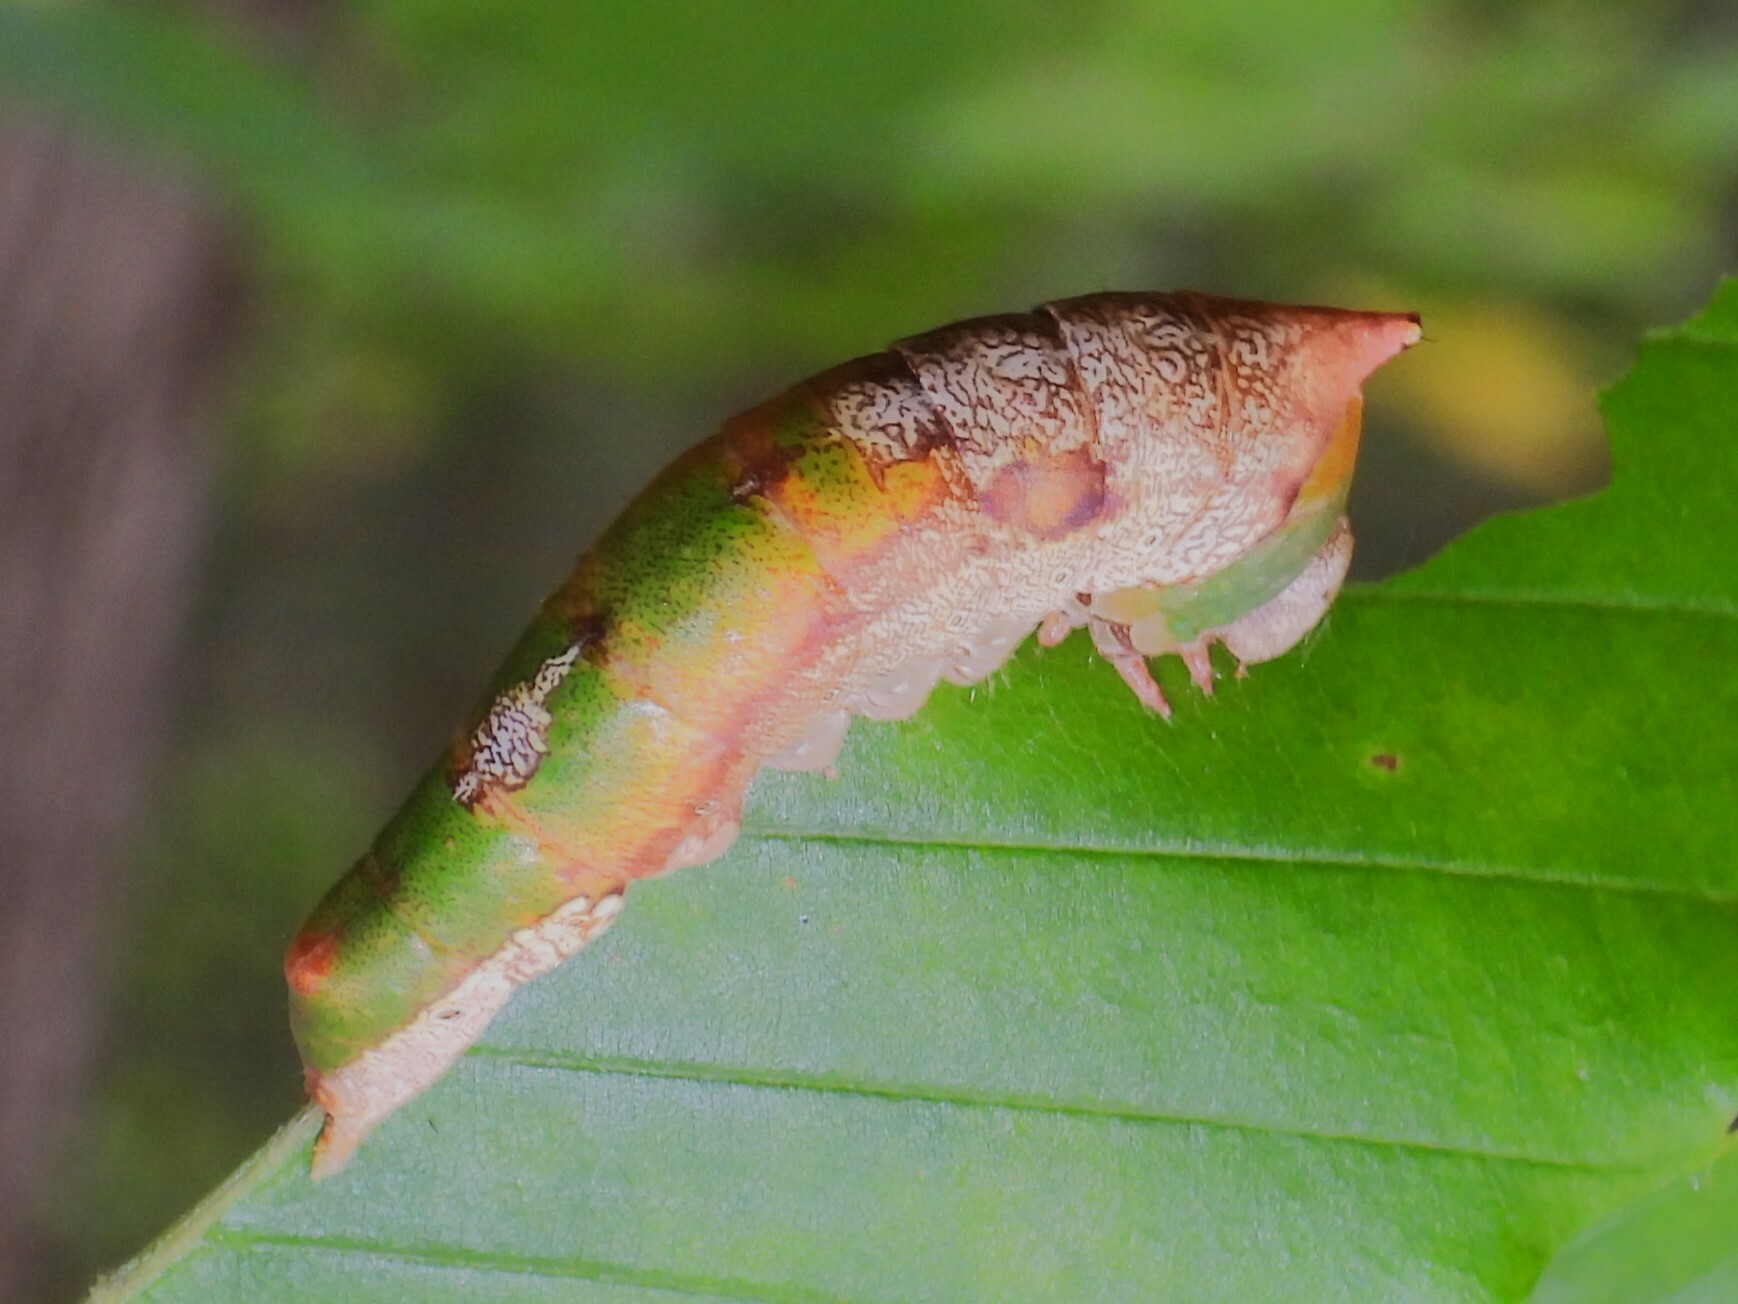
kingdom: Animalia
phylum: Arthropoda
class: Insecta
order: Lepidoptera
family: Notodontidae
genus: Oligocentria
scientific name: Oligocentria Ianassa lignicolor
